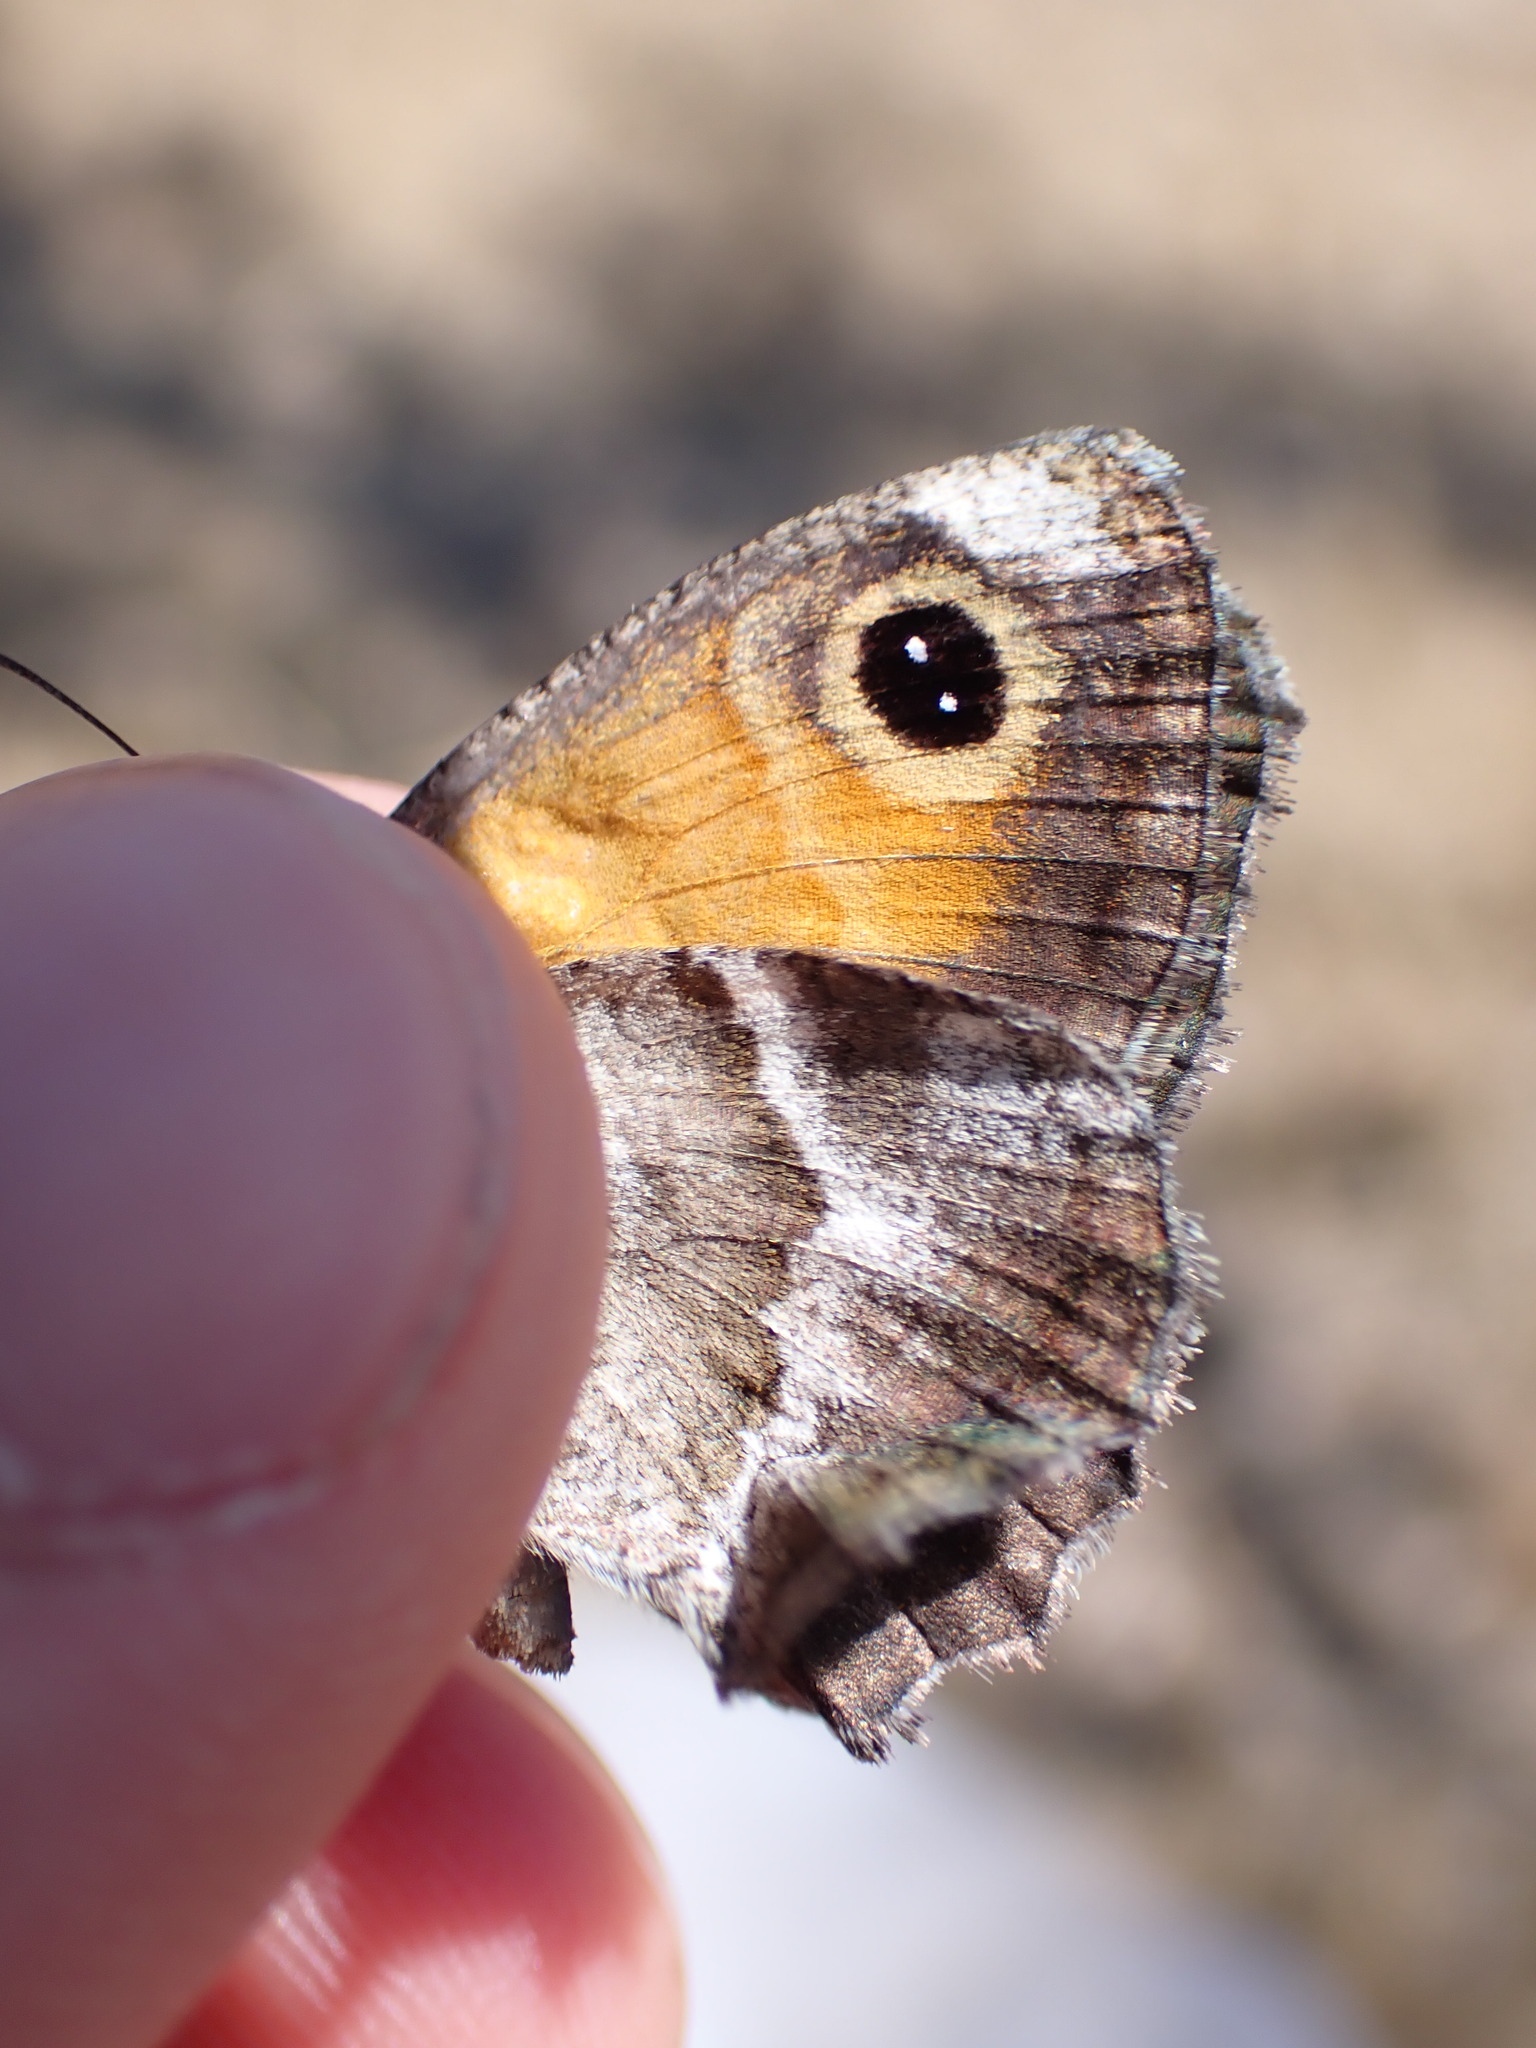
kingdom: Animalia
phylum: Arthropoda
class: Insecta
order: Lepidoptera
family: Nymphalidae
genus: Pyronia
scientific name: Pyronia cecilia
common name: Southern gatekeeper
